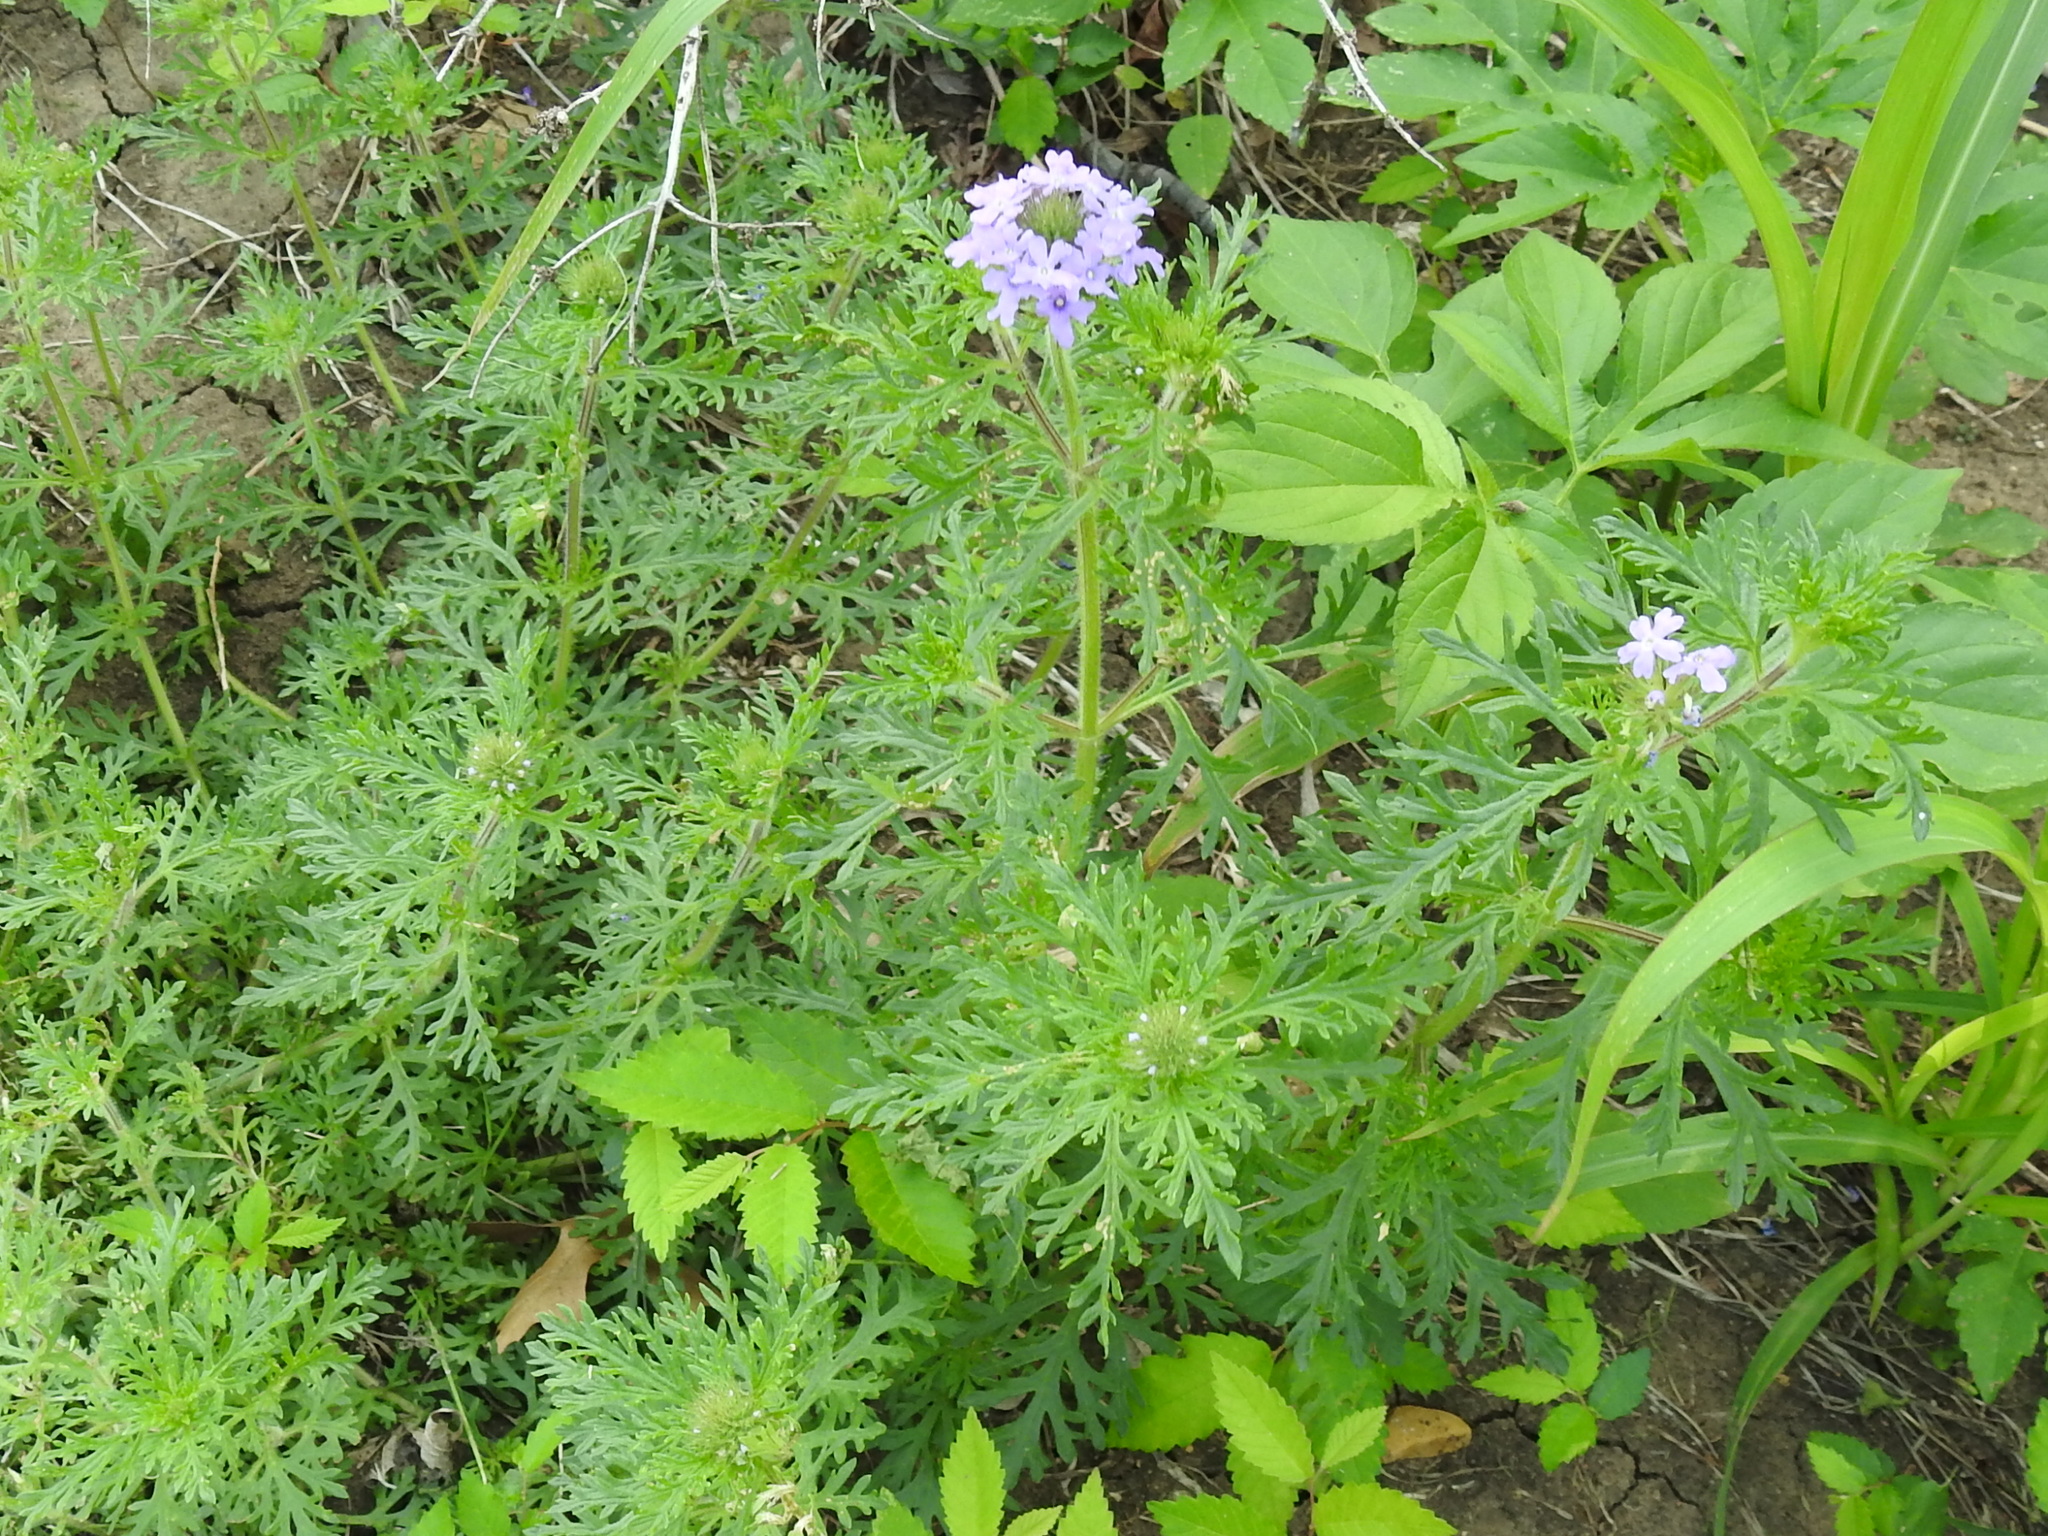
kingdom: Plantae
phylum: Tracheophyta
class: Magnoliopsida
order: Lamiales
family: Verbenaceae
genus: Verbena
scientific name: Verbena bipinnatifida
